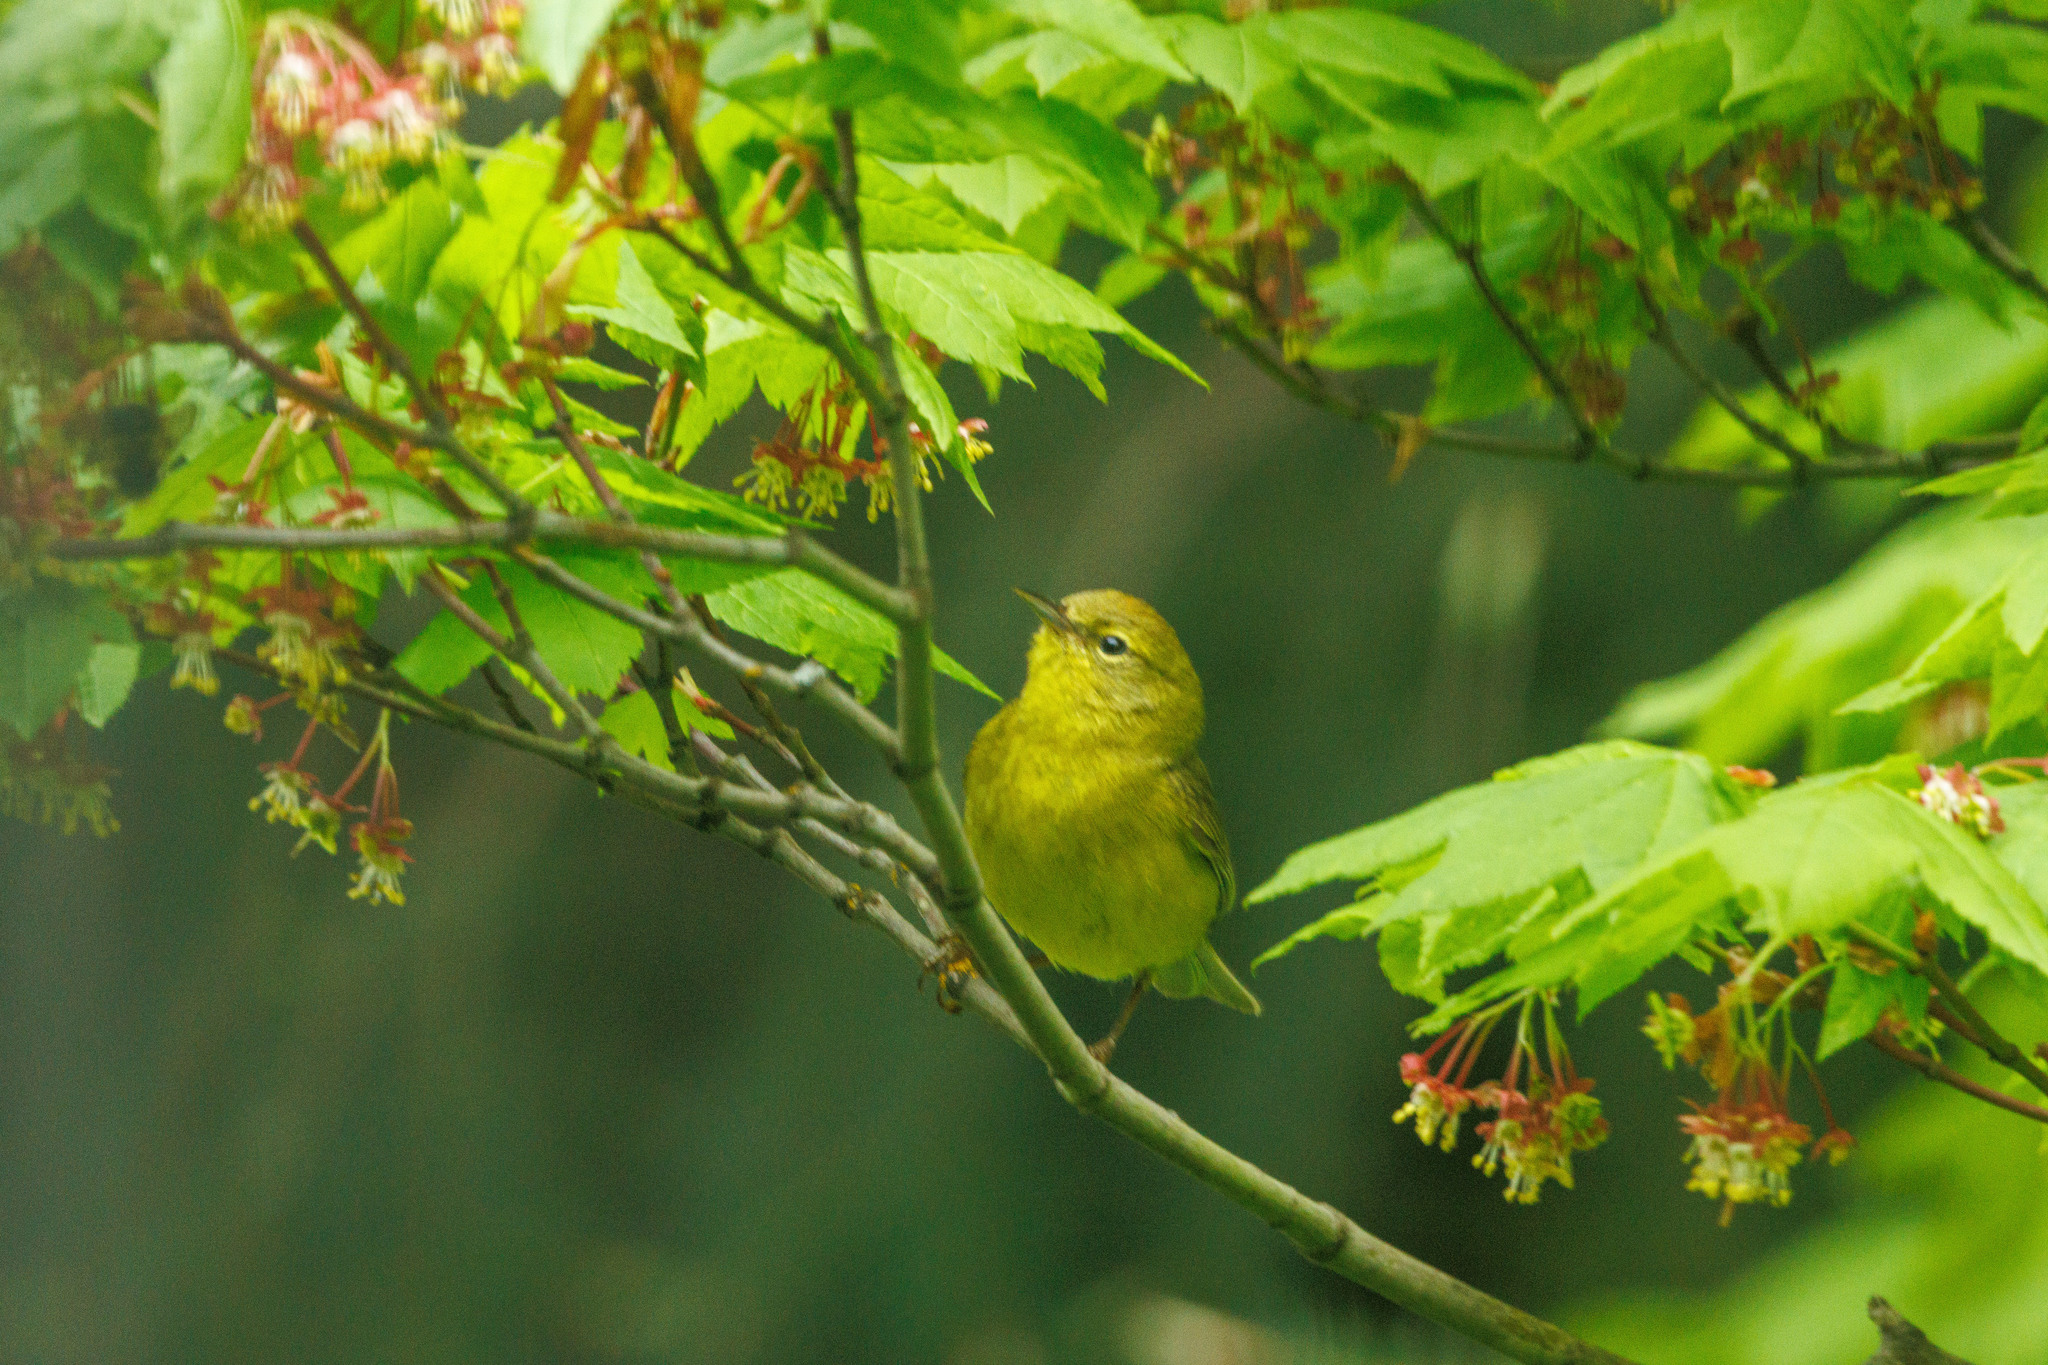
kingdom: Animalia
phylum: Chordata
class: Aves
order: Passeriformes
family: Parulidae
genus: Leiothlypis
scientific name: Leiothlypis celata
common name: Orange-crowned warbler
